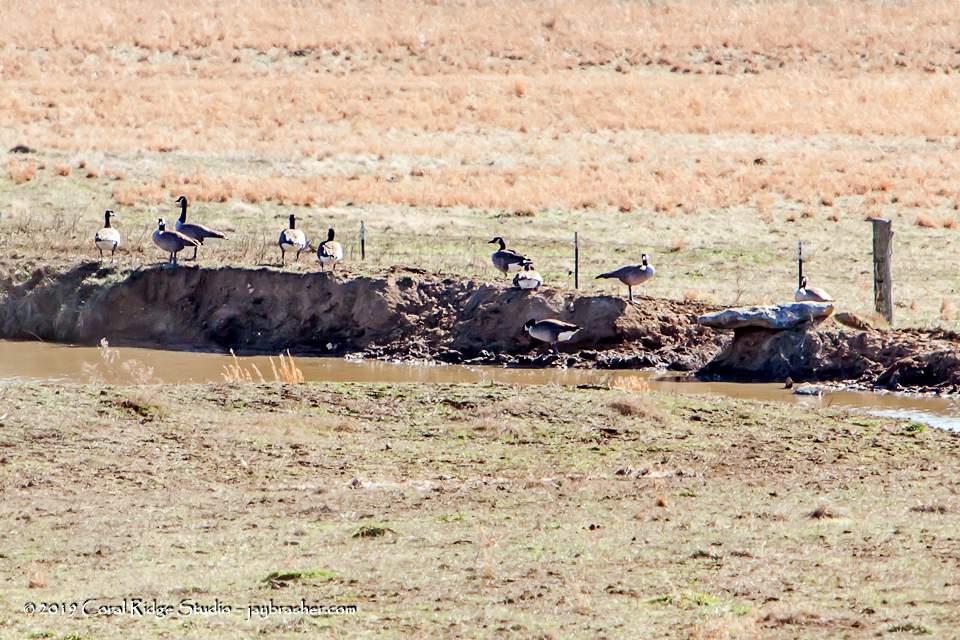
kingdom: Animalia
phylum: Chordata
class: Aves
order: Anseriformes
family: Anatidae
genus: Branta
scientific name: Branta canadensis
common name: Canada goose
